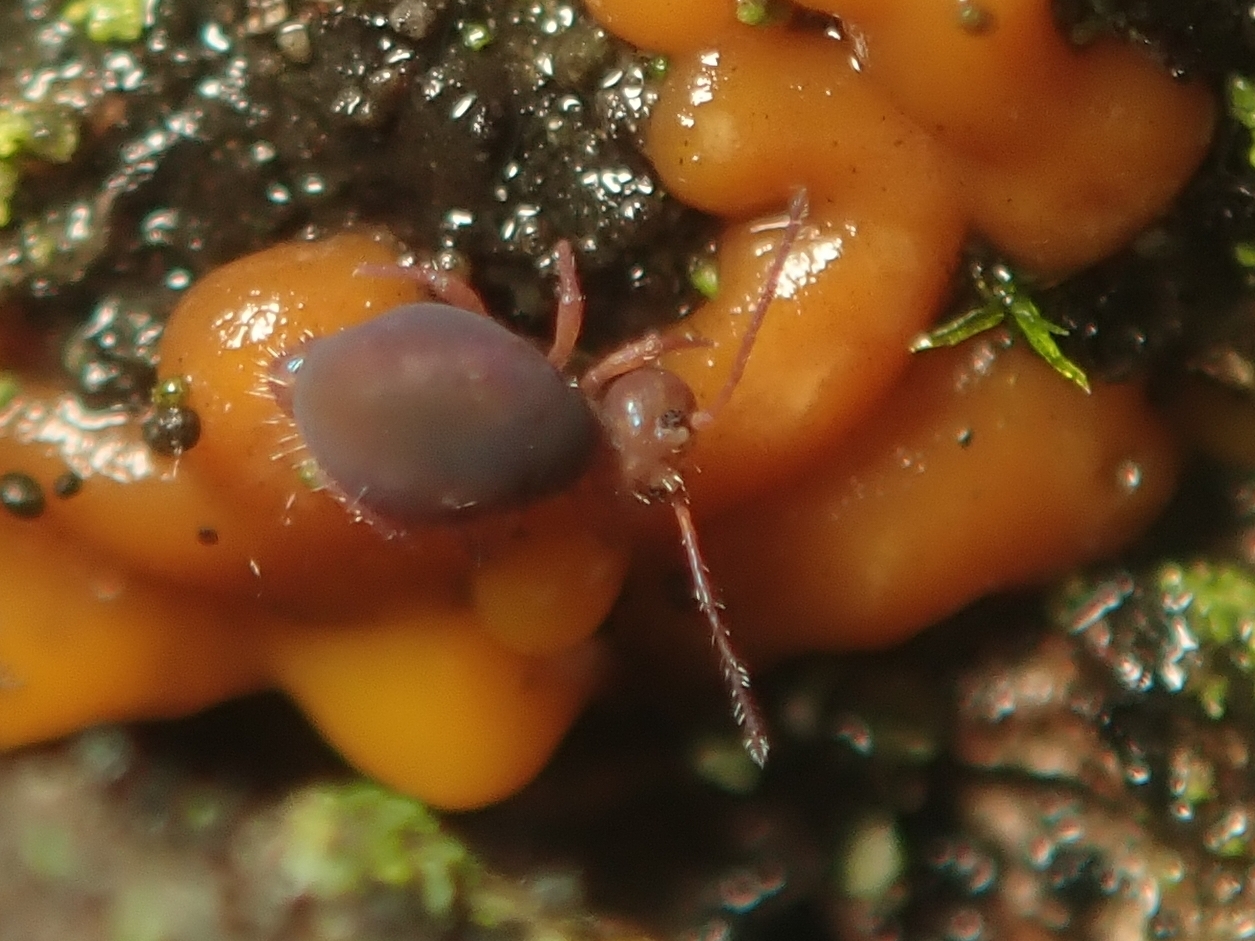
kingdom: Animalia
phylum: Arthropoda
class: Collembola
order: Symphypleona
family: Dicyrtomidae
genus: Dicyrtoma
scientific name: Dicyrtoma fusca
